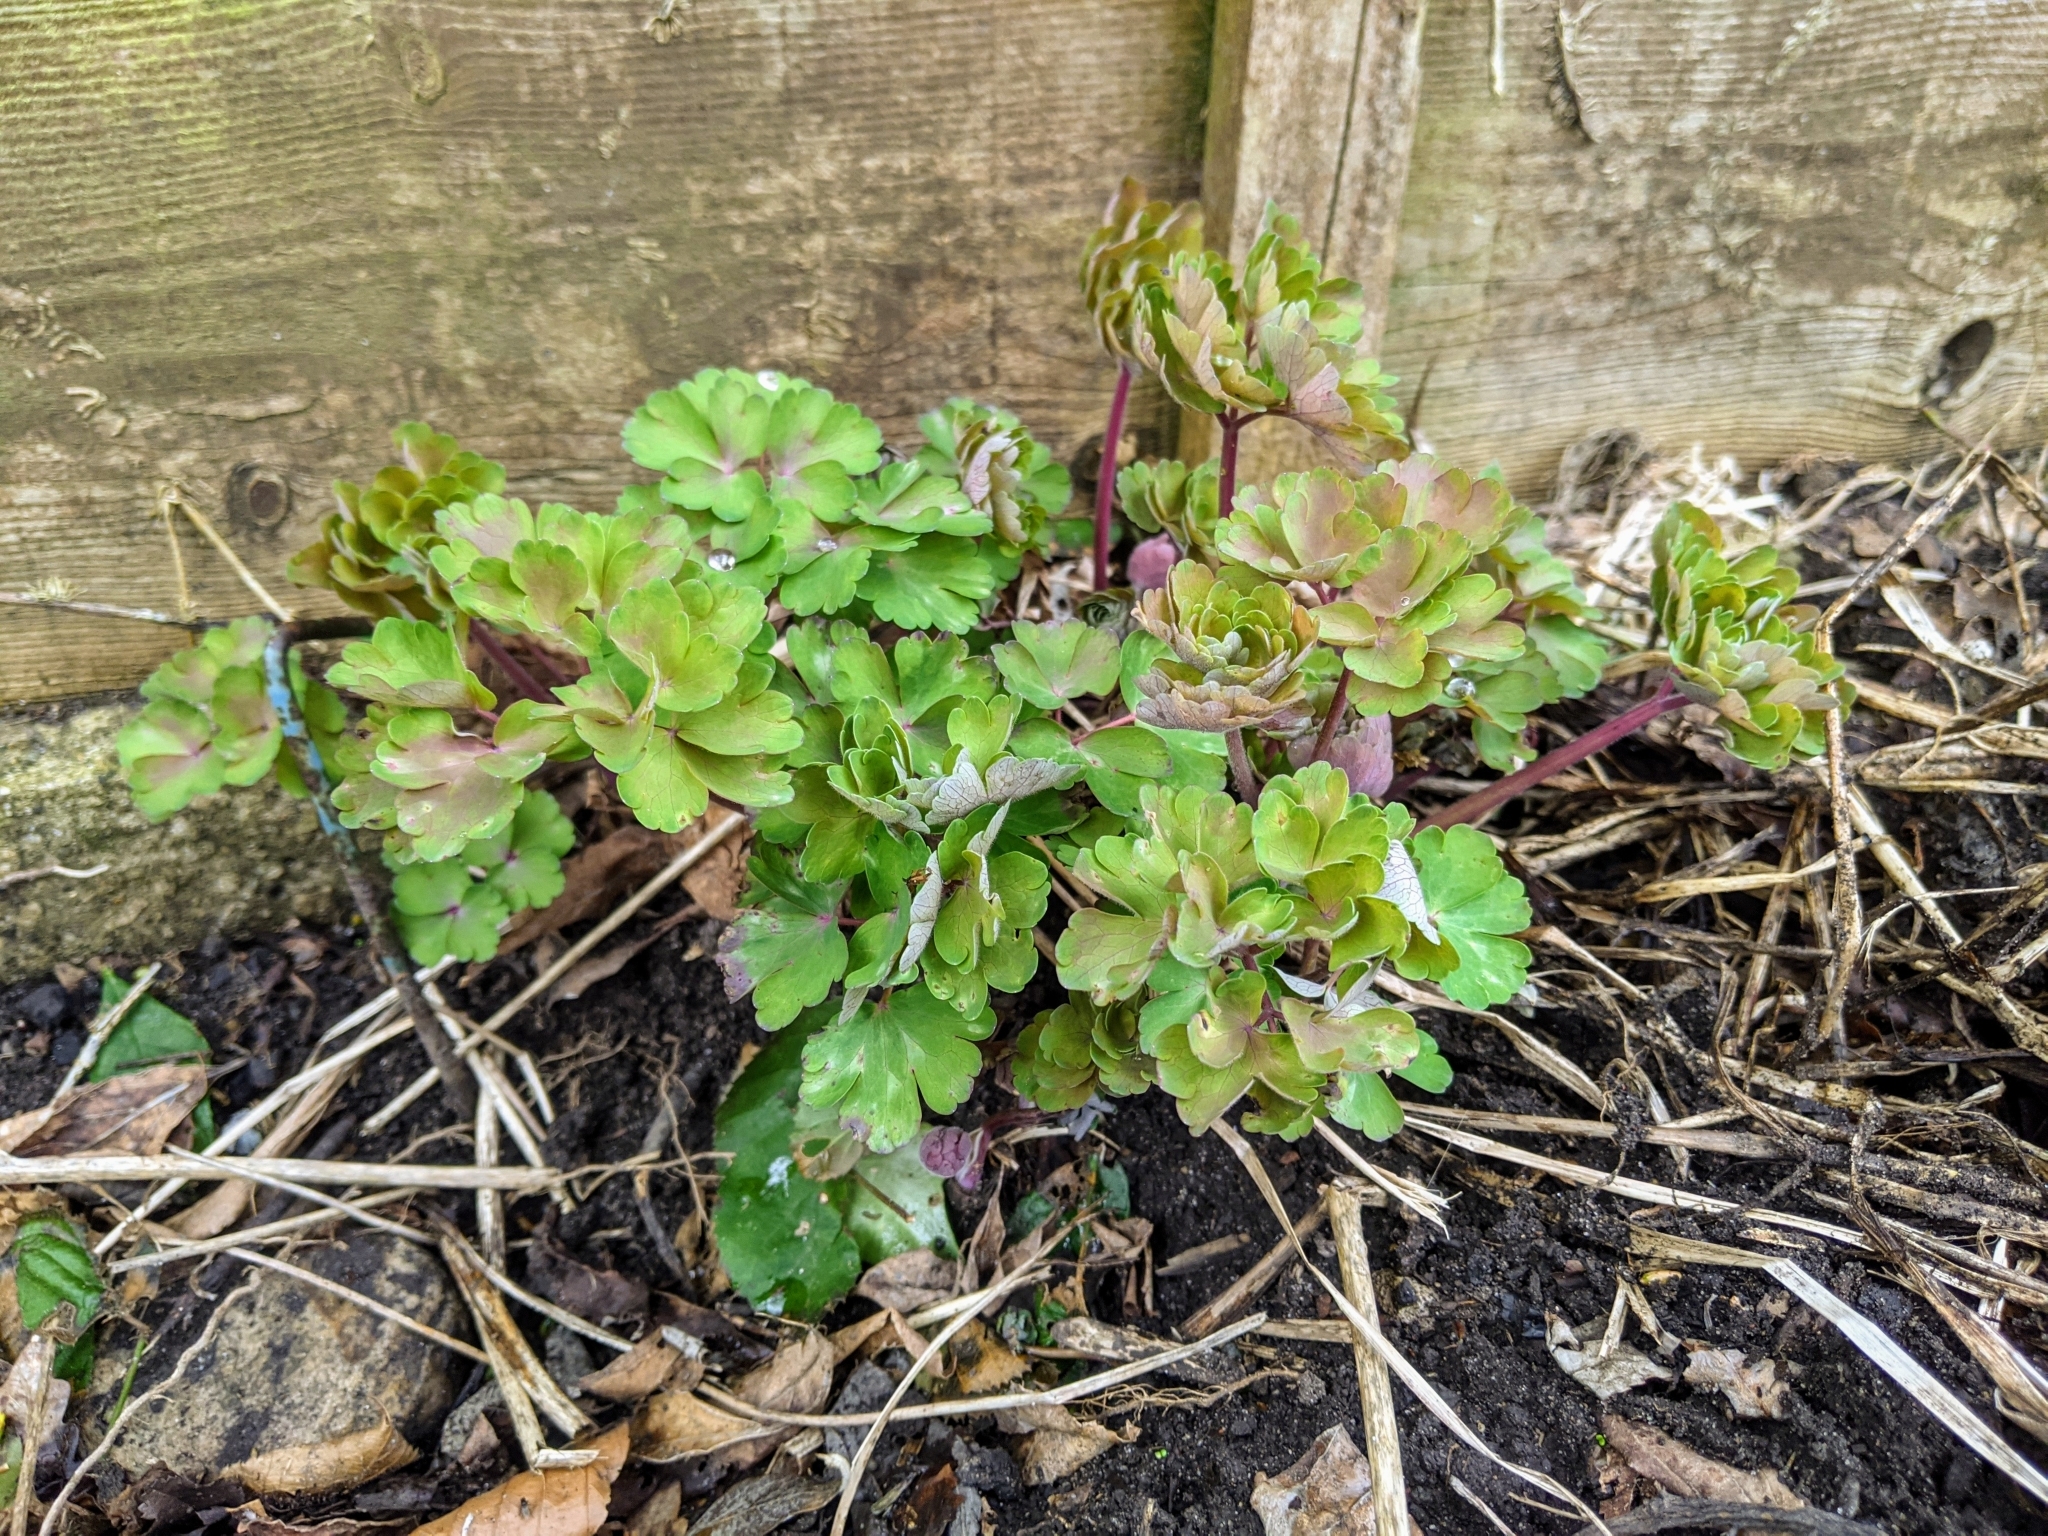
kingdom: Plantae
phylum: Tracheophyta
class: Magnoliopsida
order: Ranunculales
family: Ranunculaceae
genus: Aquilegia
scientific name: Aquilegia vulgaris
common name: Columbine
